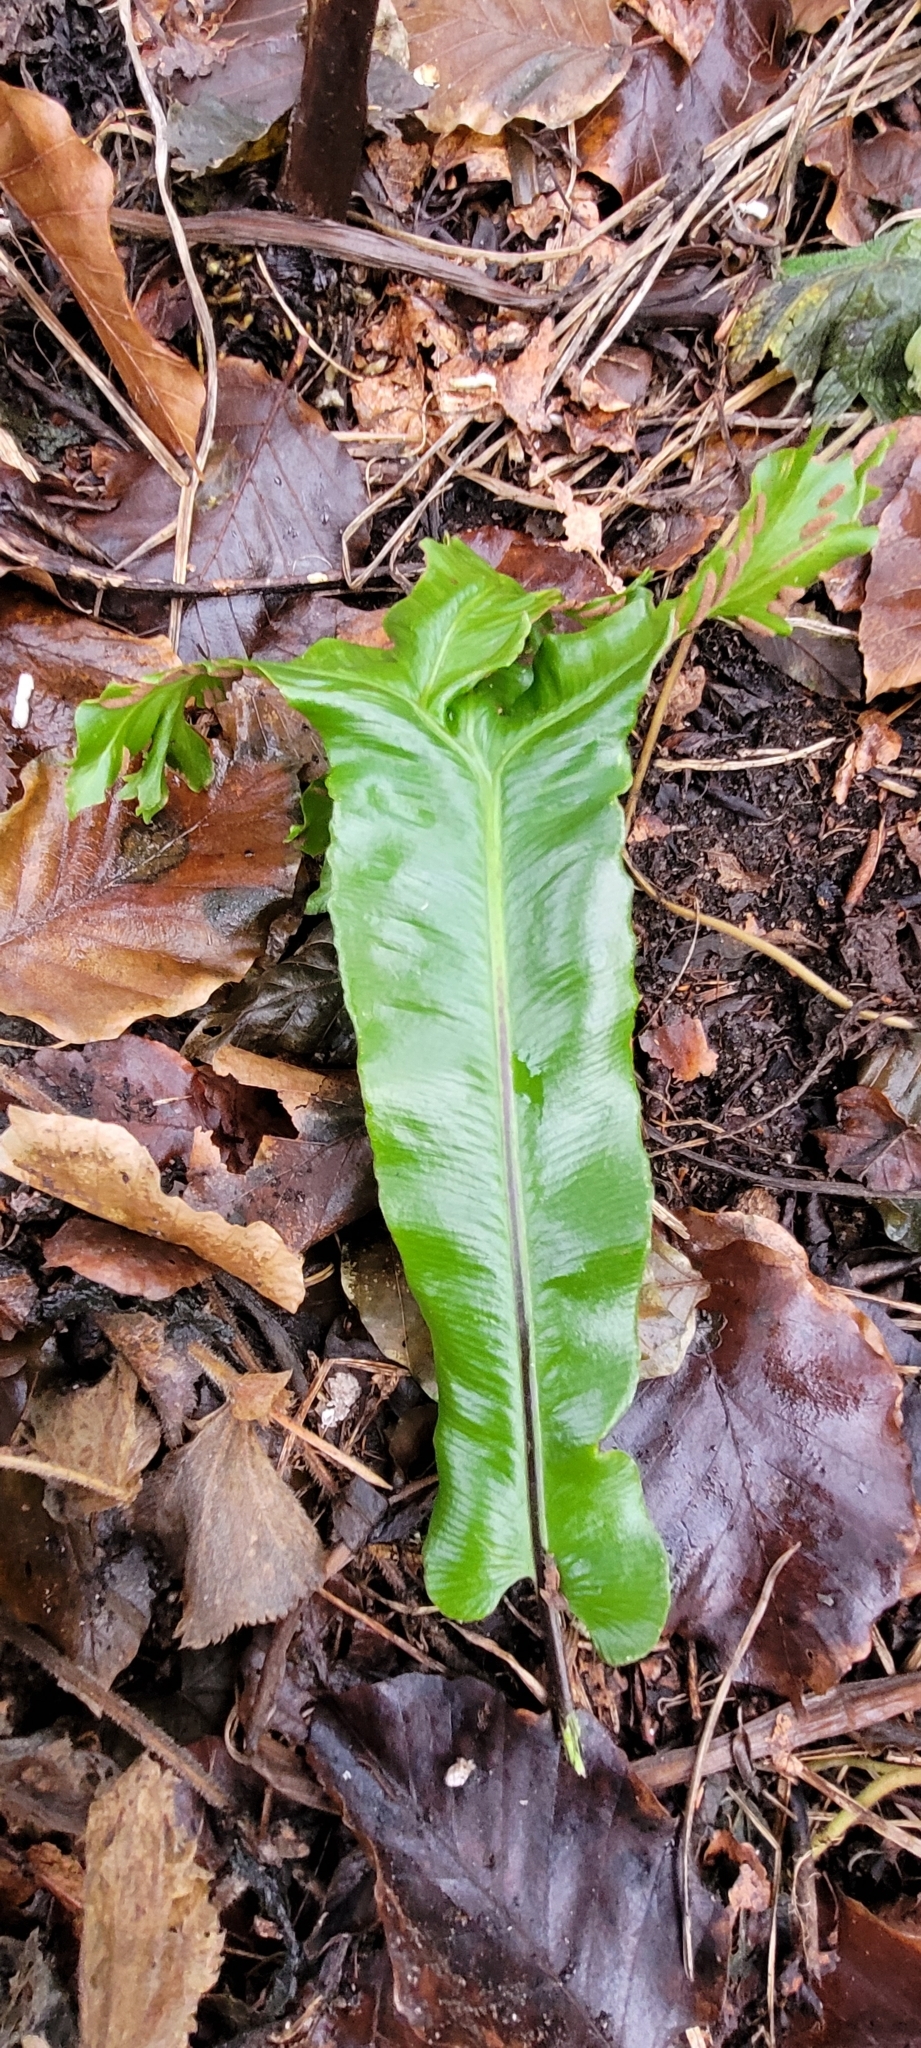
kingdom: Plantae
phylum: Tracheophyta
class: Polypodiopsida
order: Polypodiales
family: Aspleniaceae
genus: Asplenium
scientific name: Asplenium scolopendrium
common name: Hart's-tongue fern
